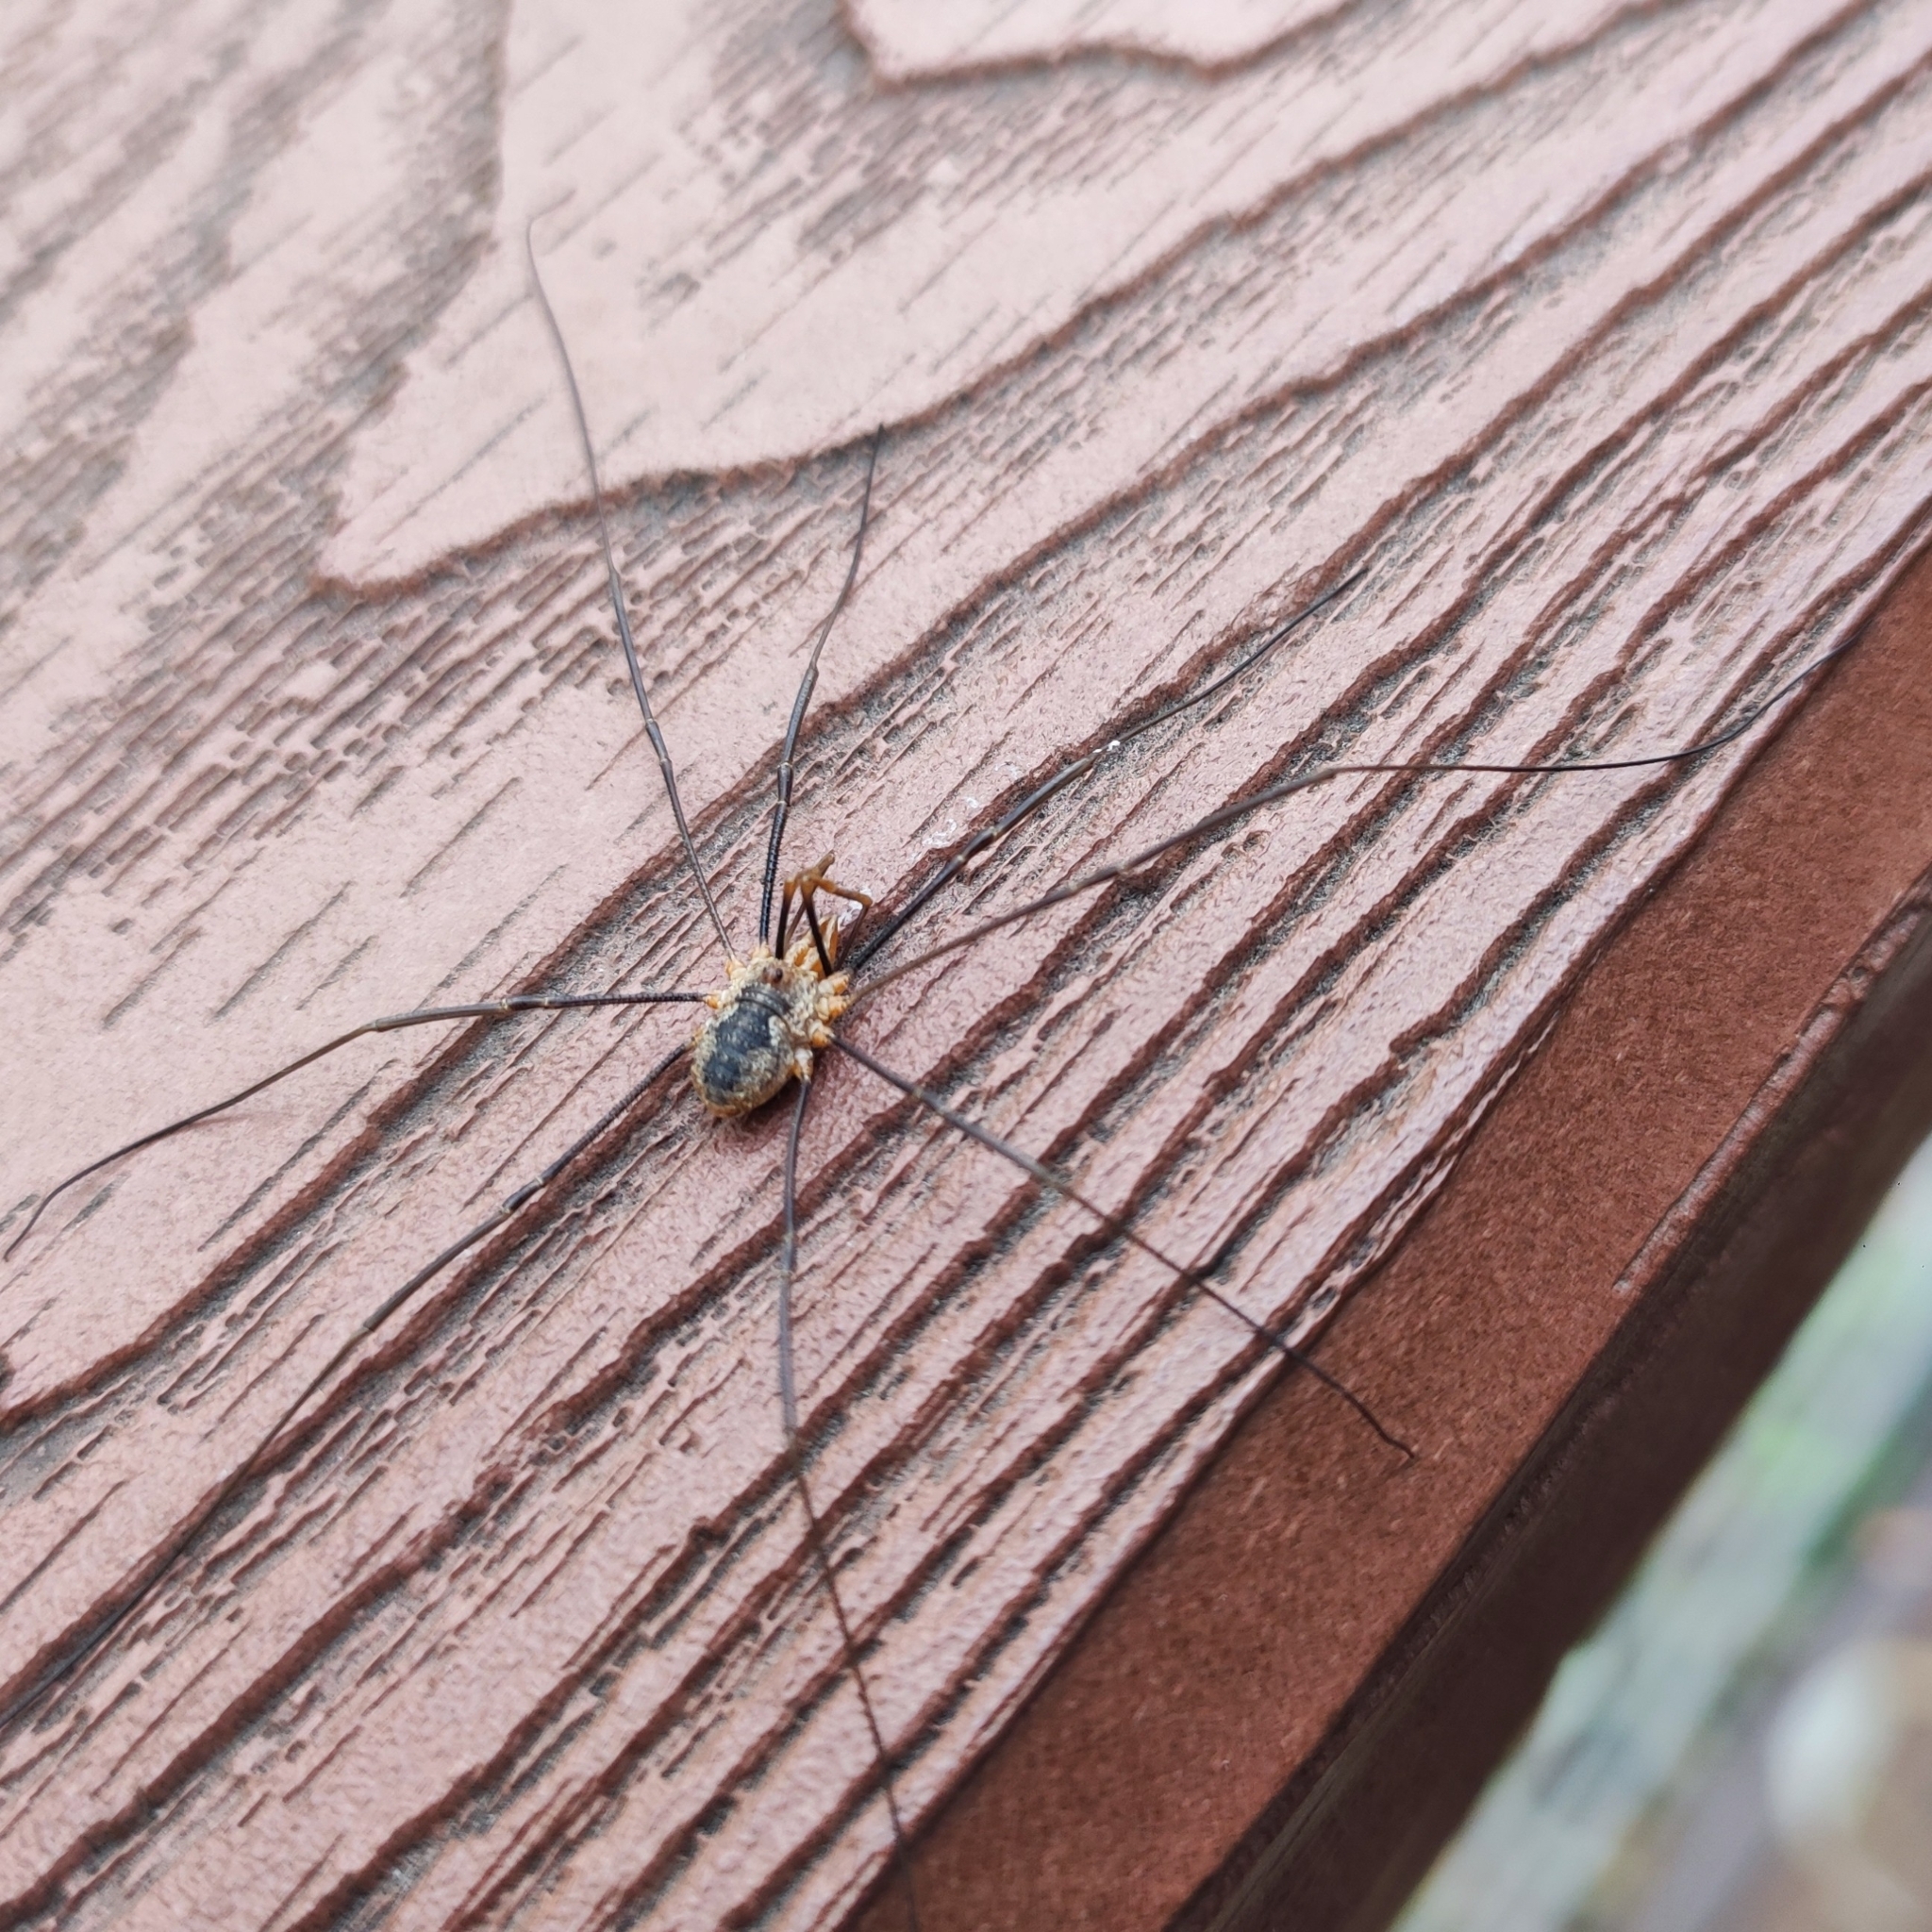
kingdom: Animalia
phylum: Arthropoda
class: Arachnida
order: Opiliones
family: Phalangiidae
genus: Phalangium
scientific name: Phalangium opilio
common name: Daddy longleg
